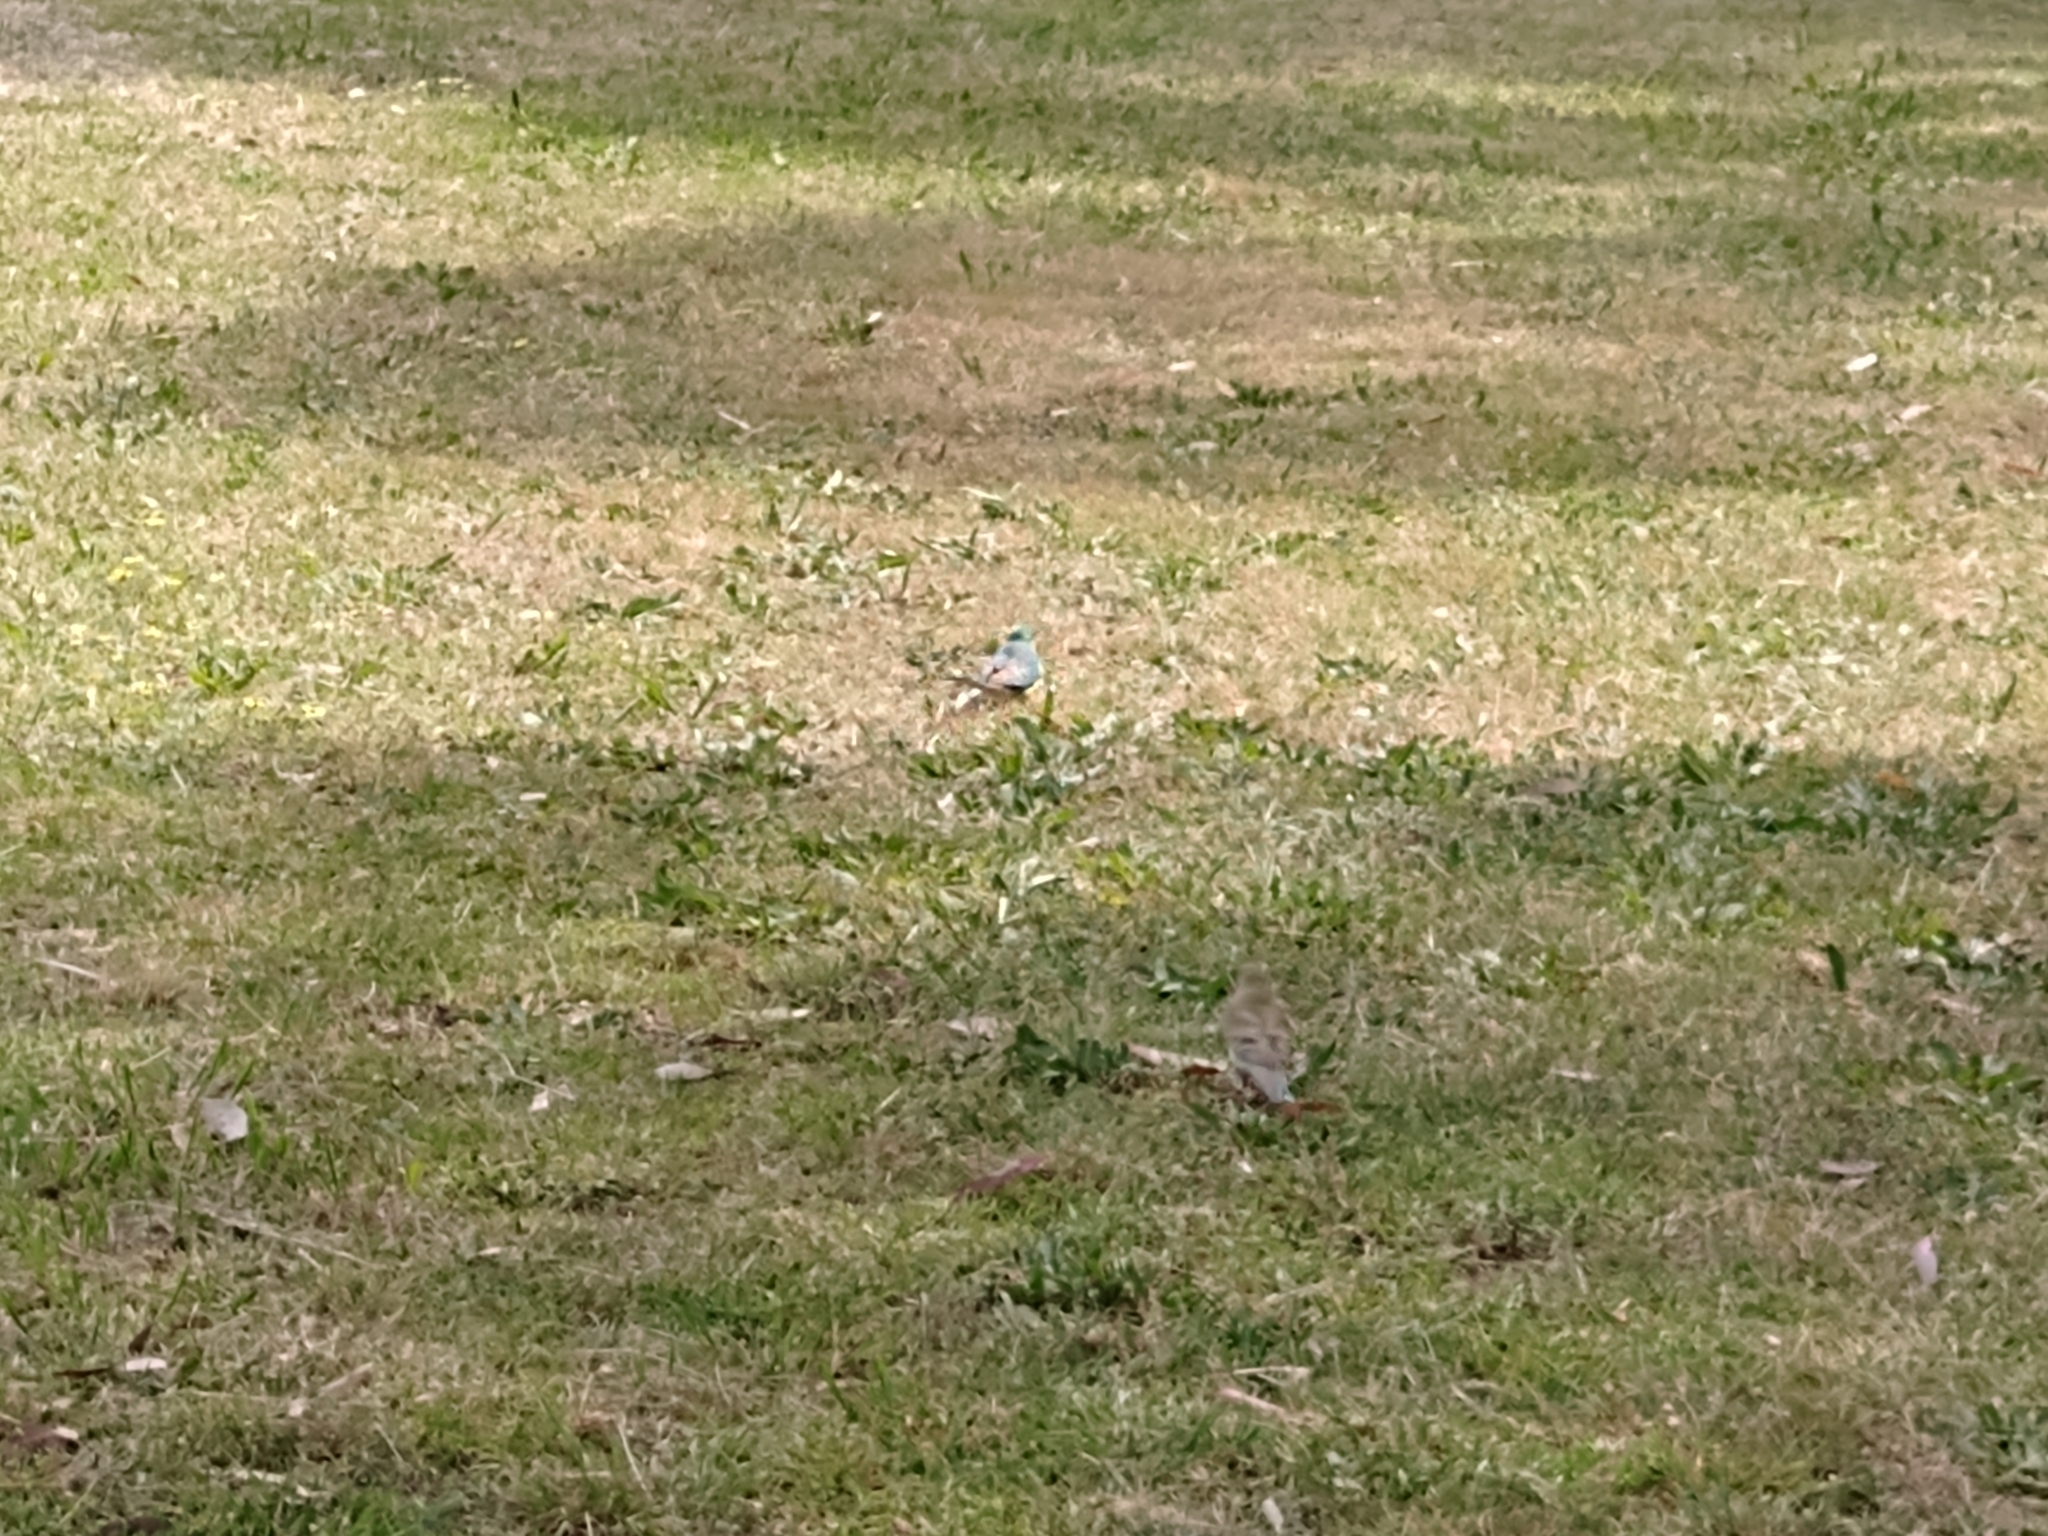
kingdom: Animalia
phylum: Chordata
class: Aves
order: Psittaciformes
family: Psittacidae
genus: Psephotus
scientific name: Psephotus haematonotus
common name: Red-rumped parrot
